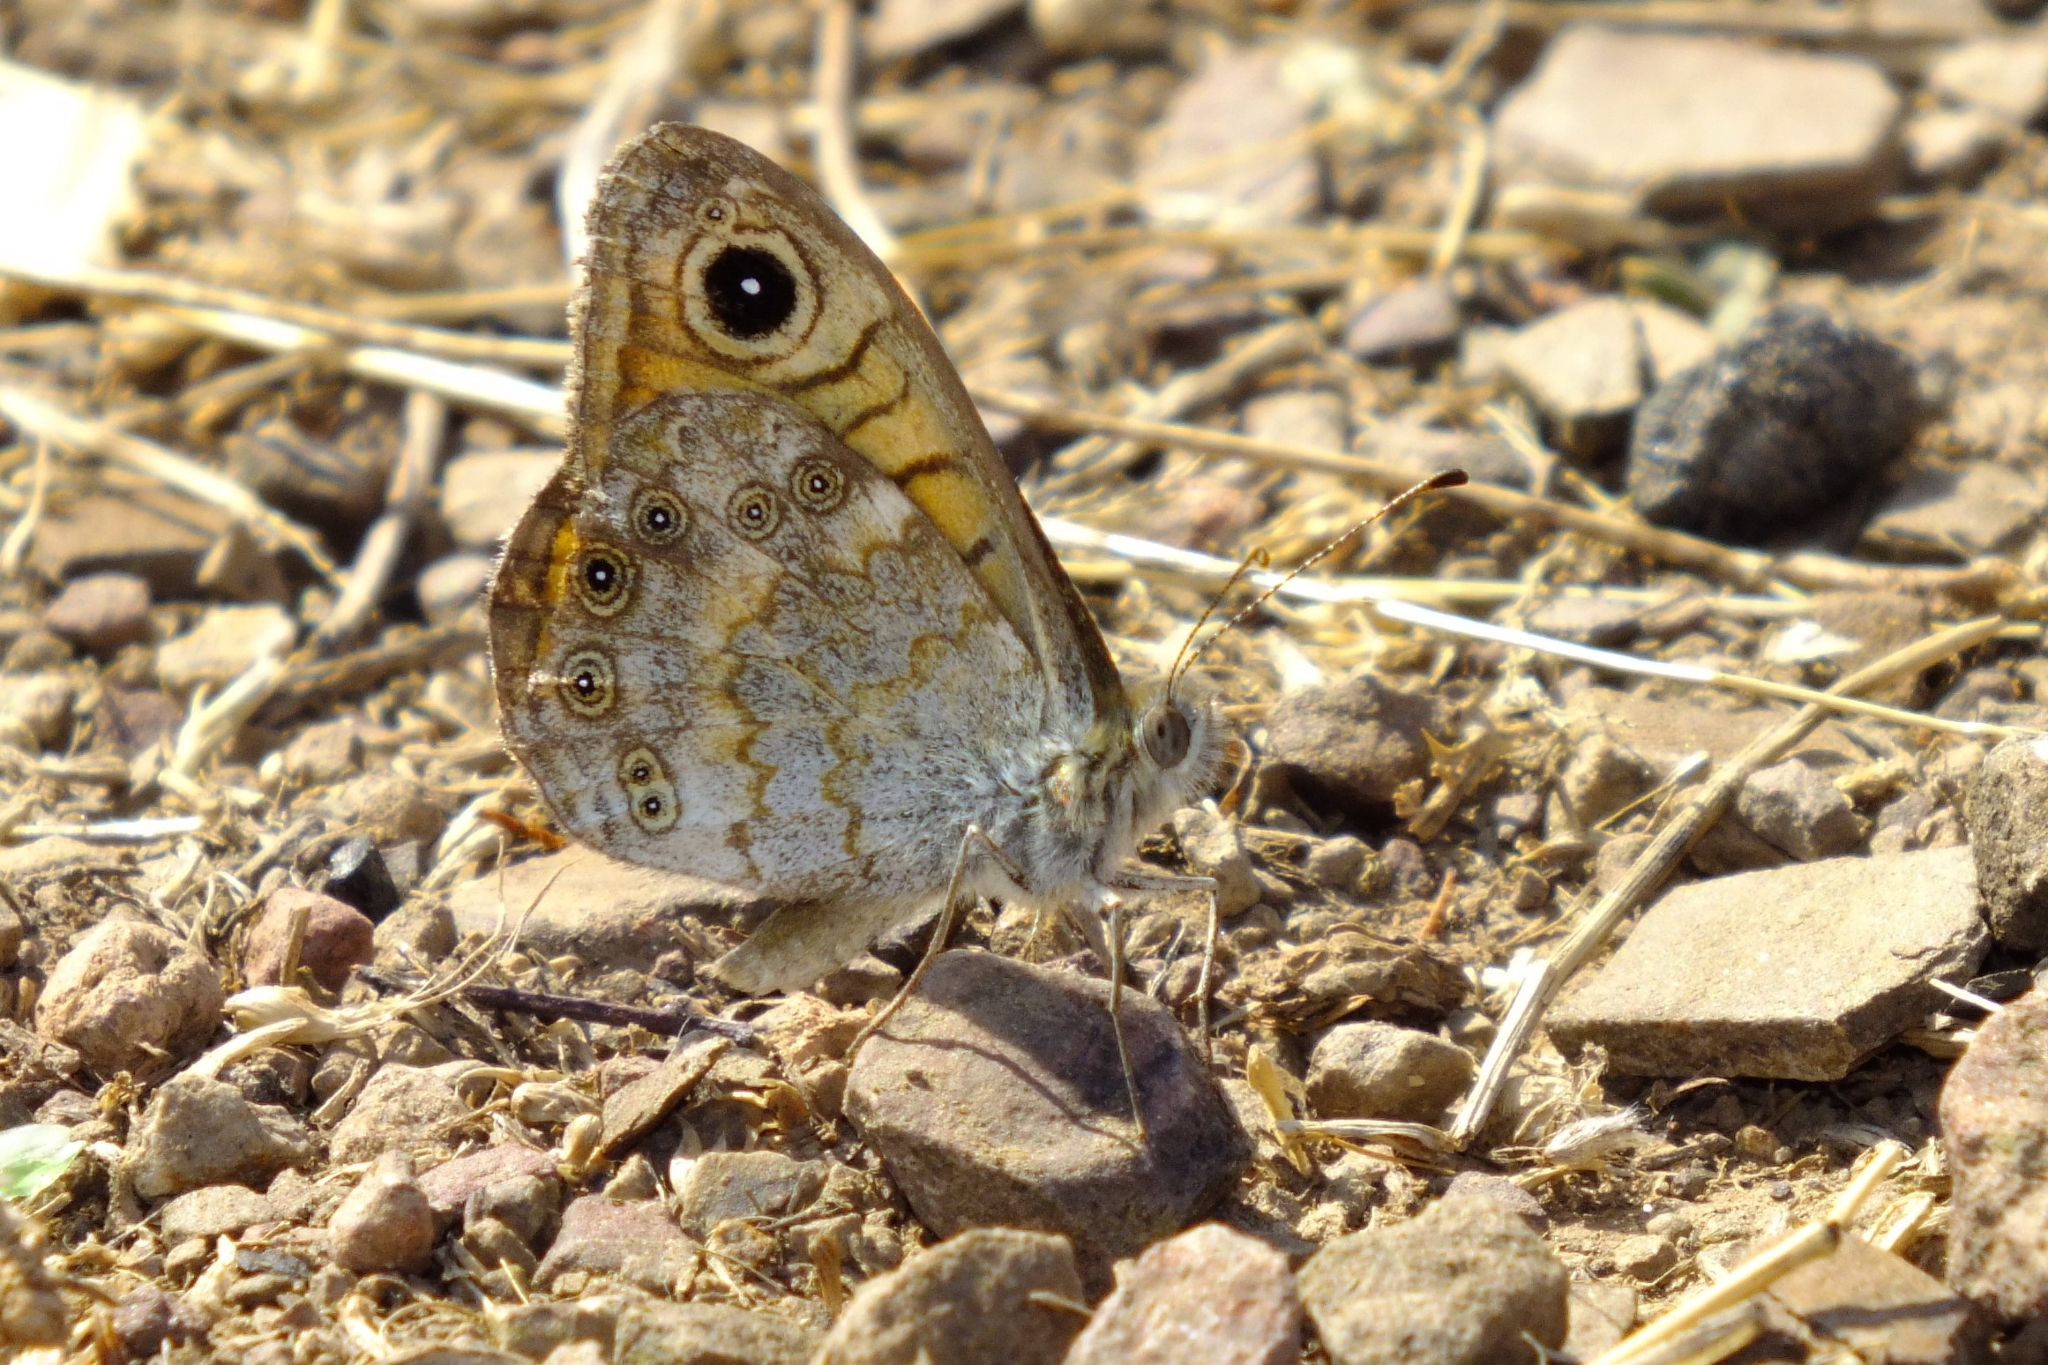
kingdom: Animalia
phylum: Arthropoda
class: Insecta
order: Lepidoptera
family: Nymphalidae
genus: Pararge
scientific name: Pararge Lasiommata megera
